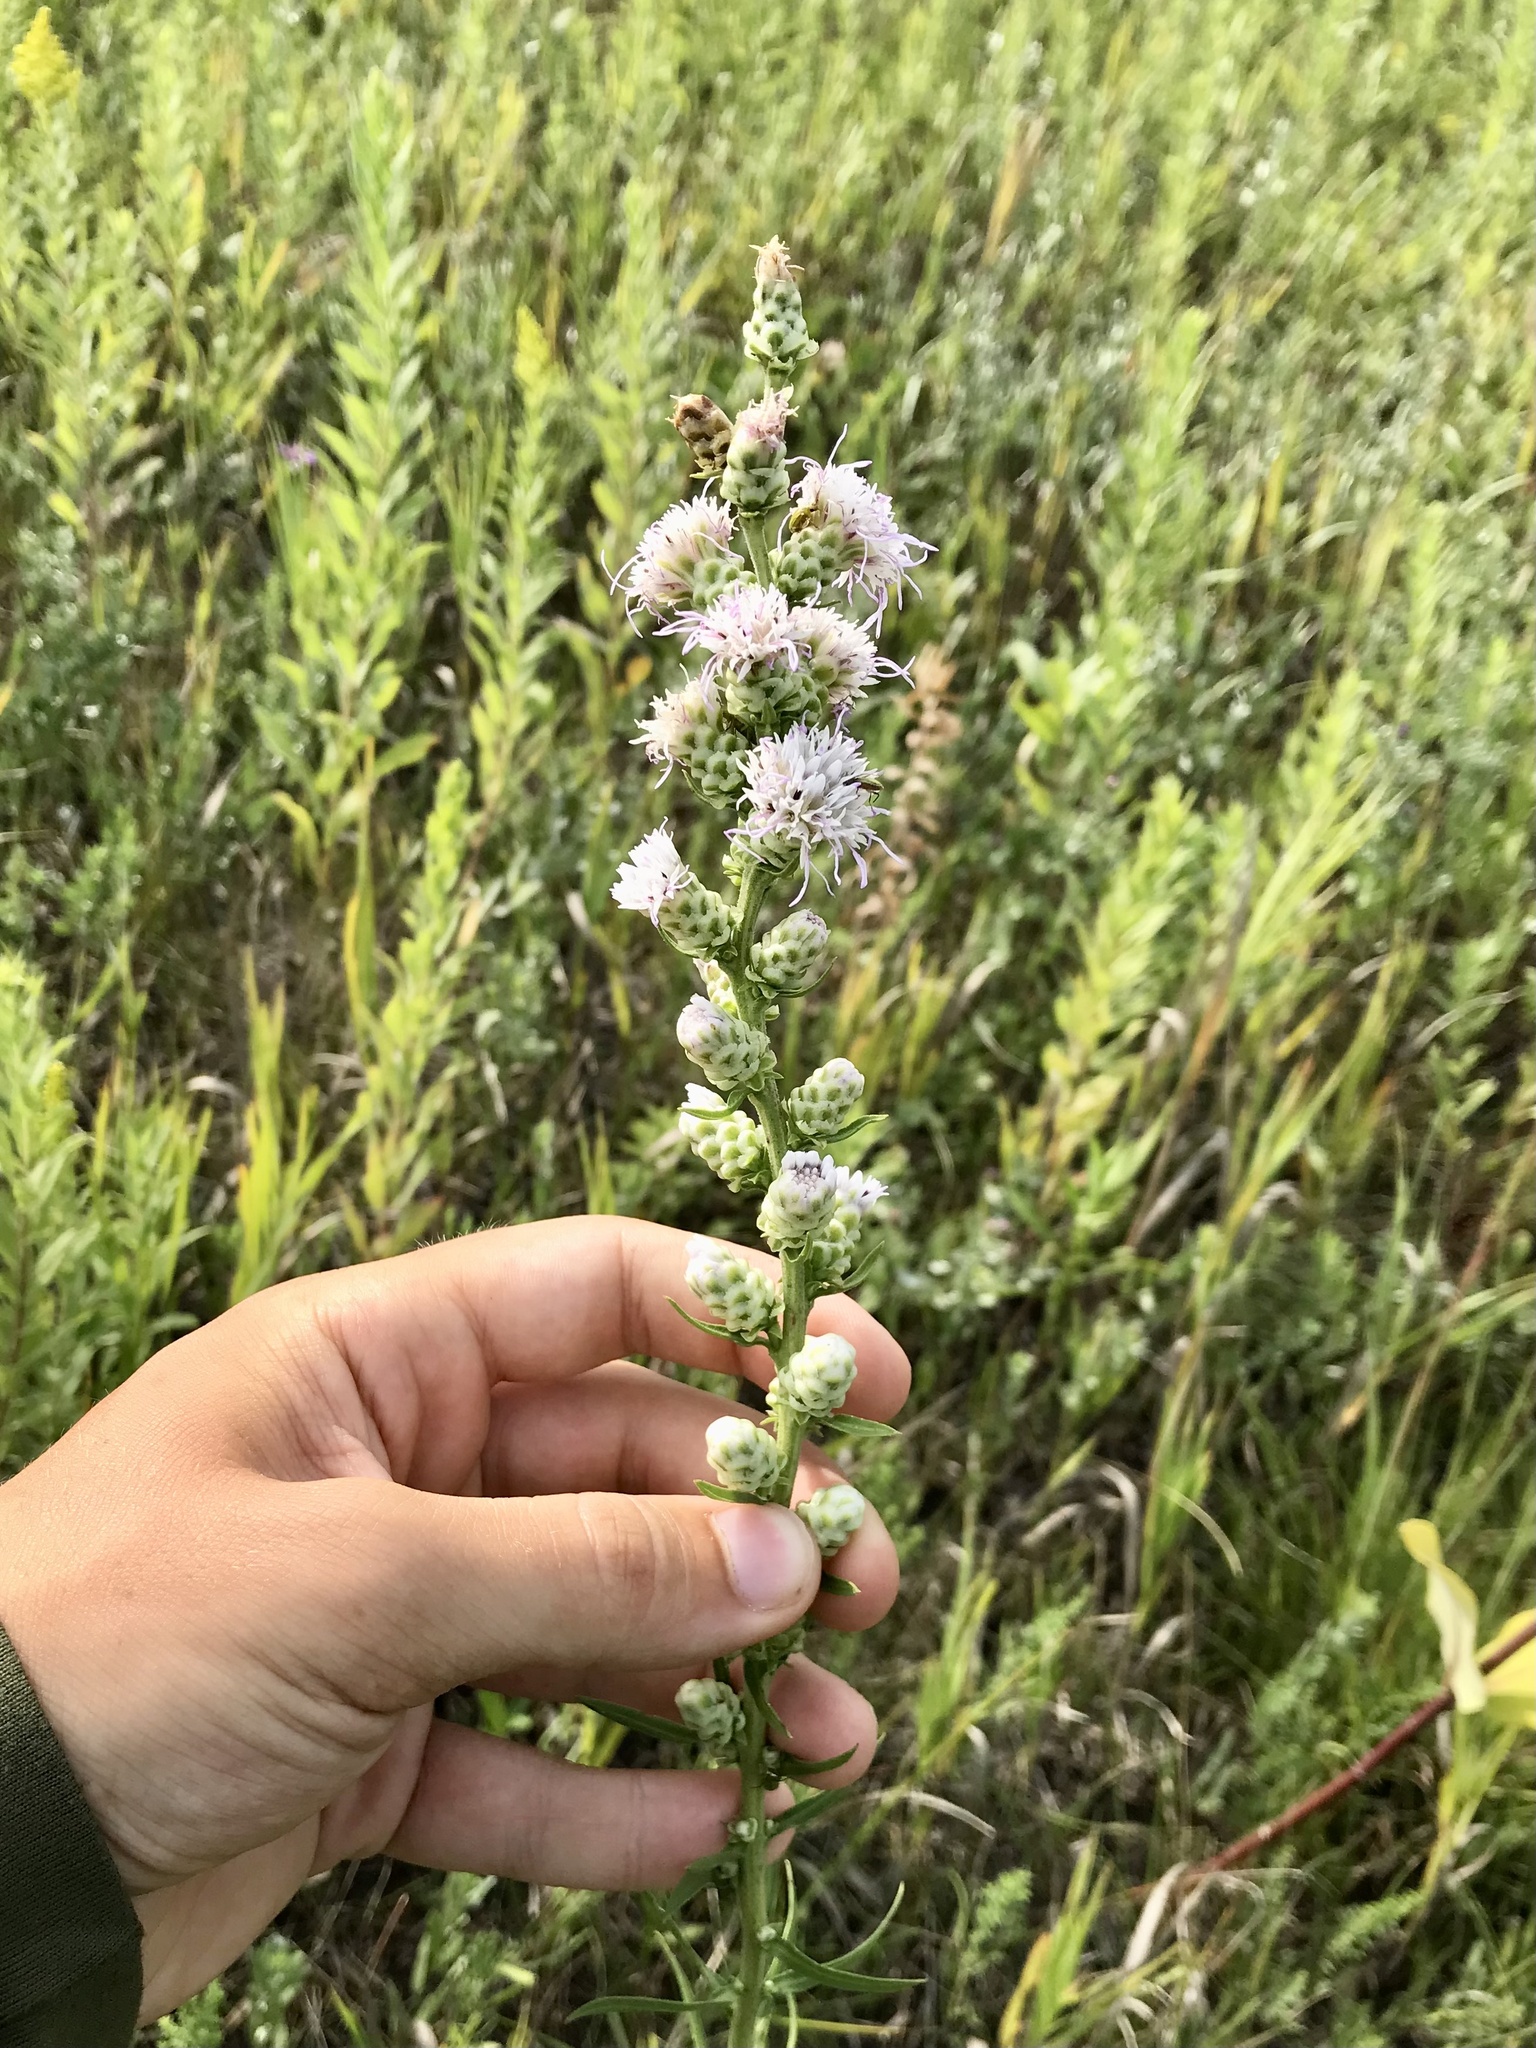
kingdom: Plantae
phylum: Tracheophyta
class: Magnoliopsida
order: Asterales
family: Asteraceae
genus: Liatris
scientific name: Liatris aspera
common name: Lacerate blazing-star
